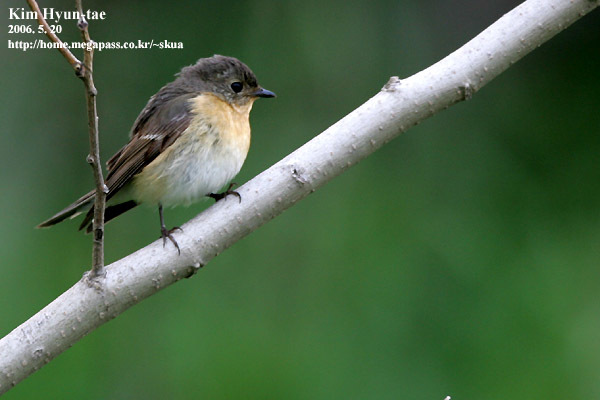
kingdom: Animalia
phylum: Chordata
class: Aves
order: Passeriformes
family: Muscicapidae
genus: Ficedula
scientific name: Ficedula mugimaki
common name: Mugimaki flycatcher
